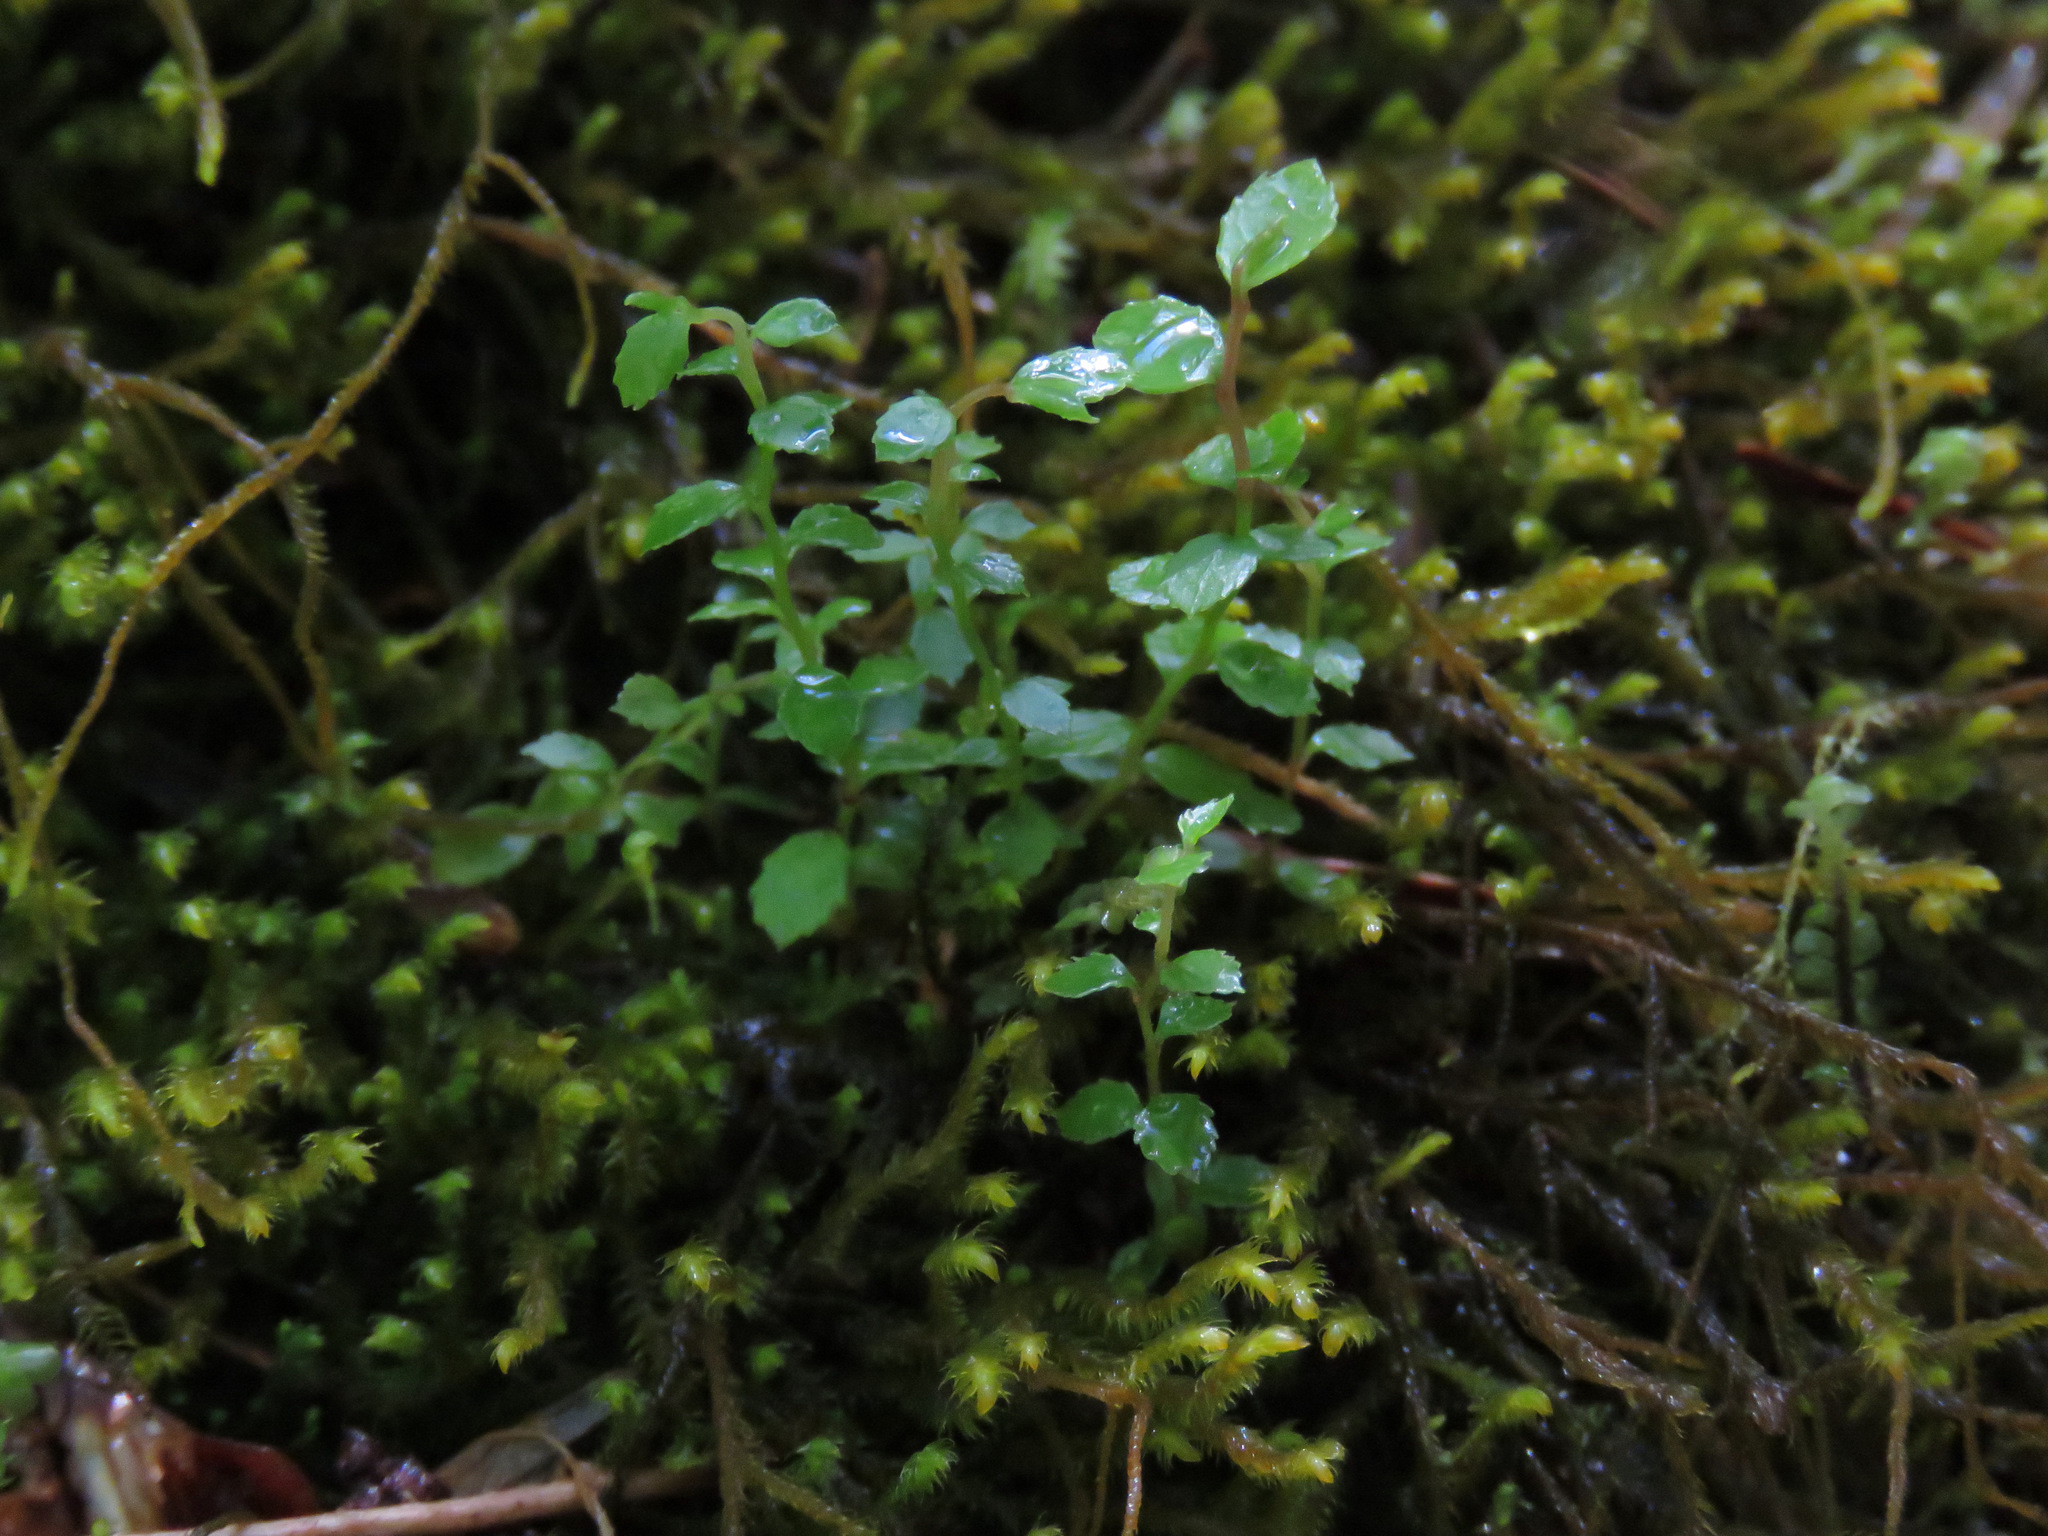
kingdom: Plantae
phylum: Tracheophyta
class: Magnoliopsida
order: Ericales
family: Ericaceae
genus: Vaccinium
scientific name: Vaccinium parvifolium
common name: Red-huckleberry
